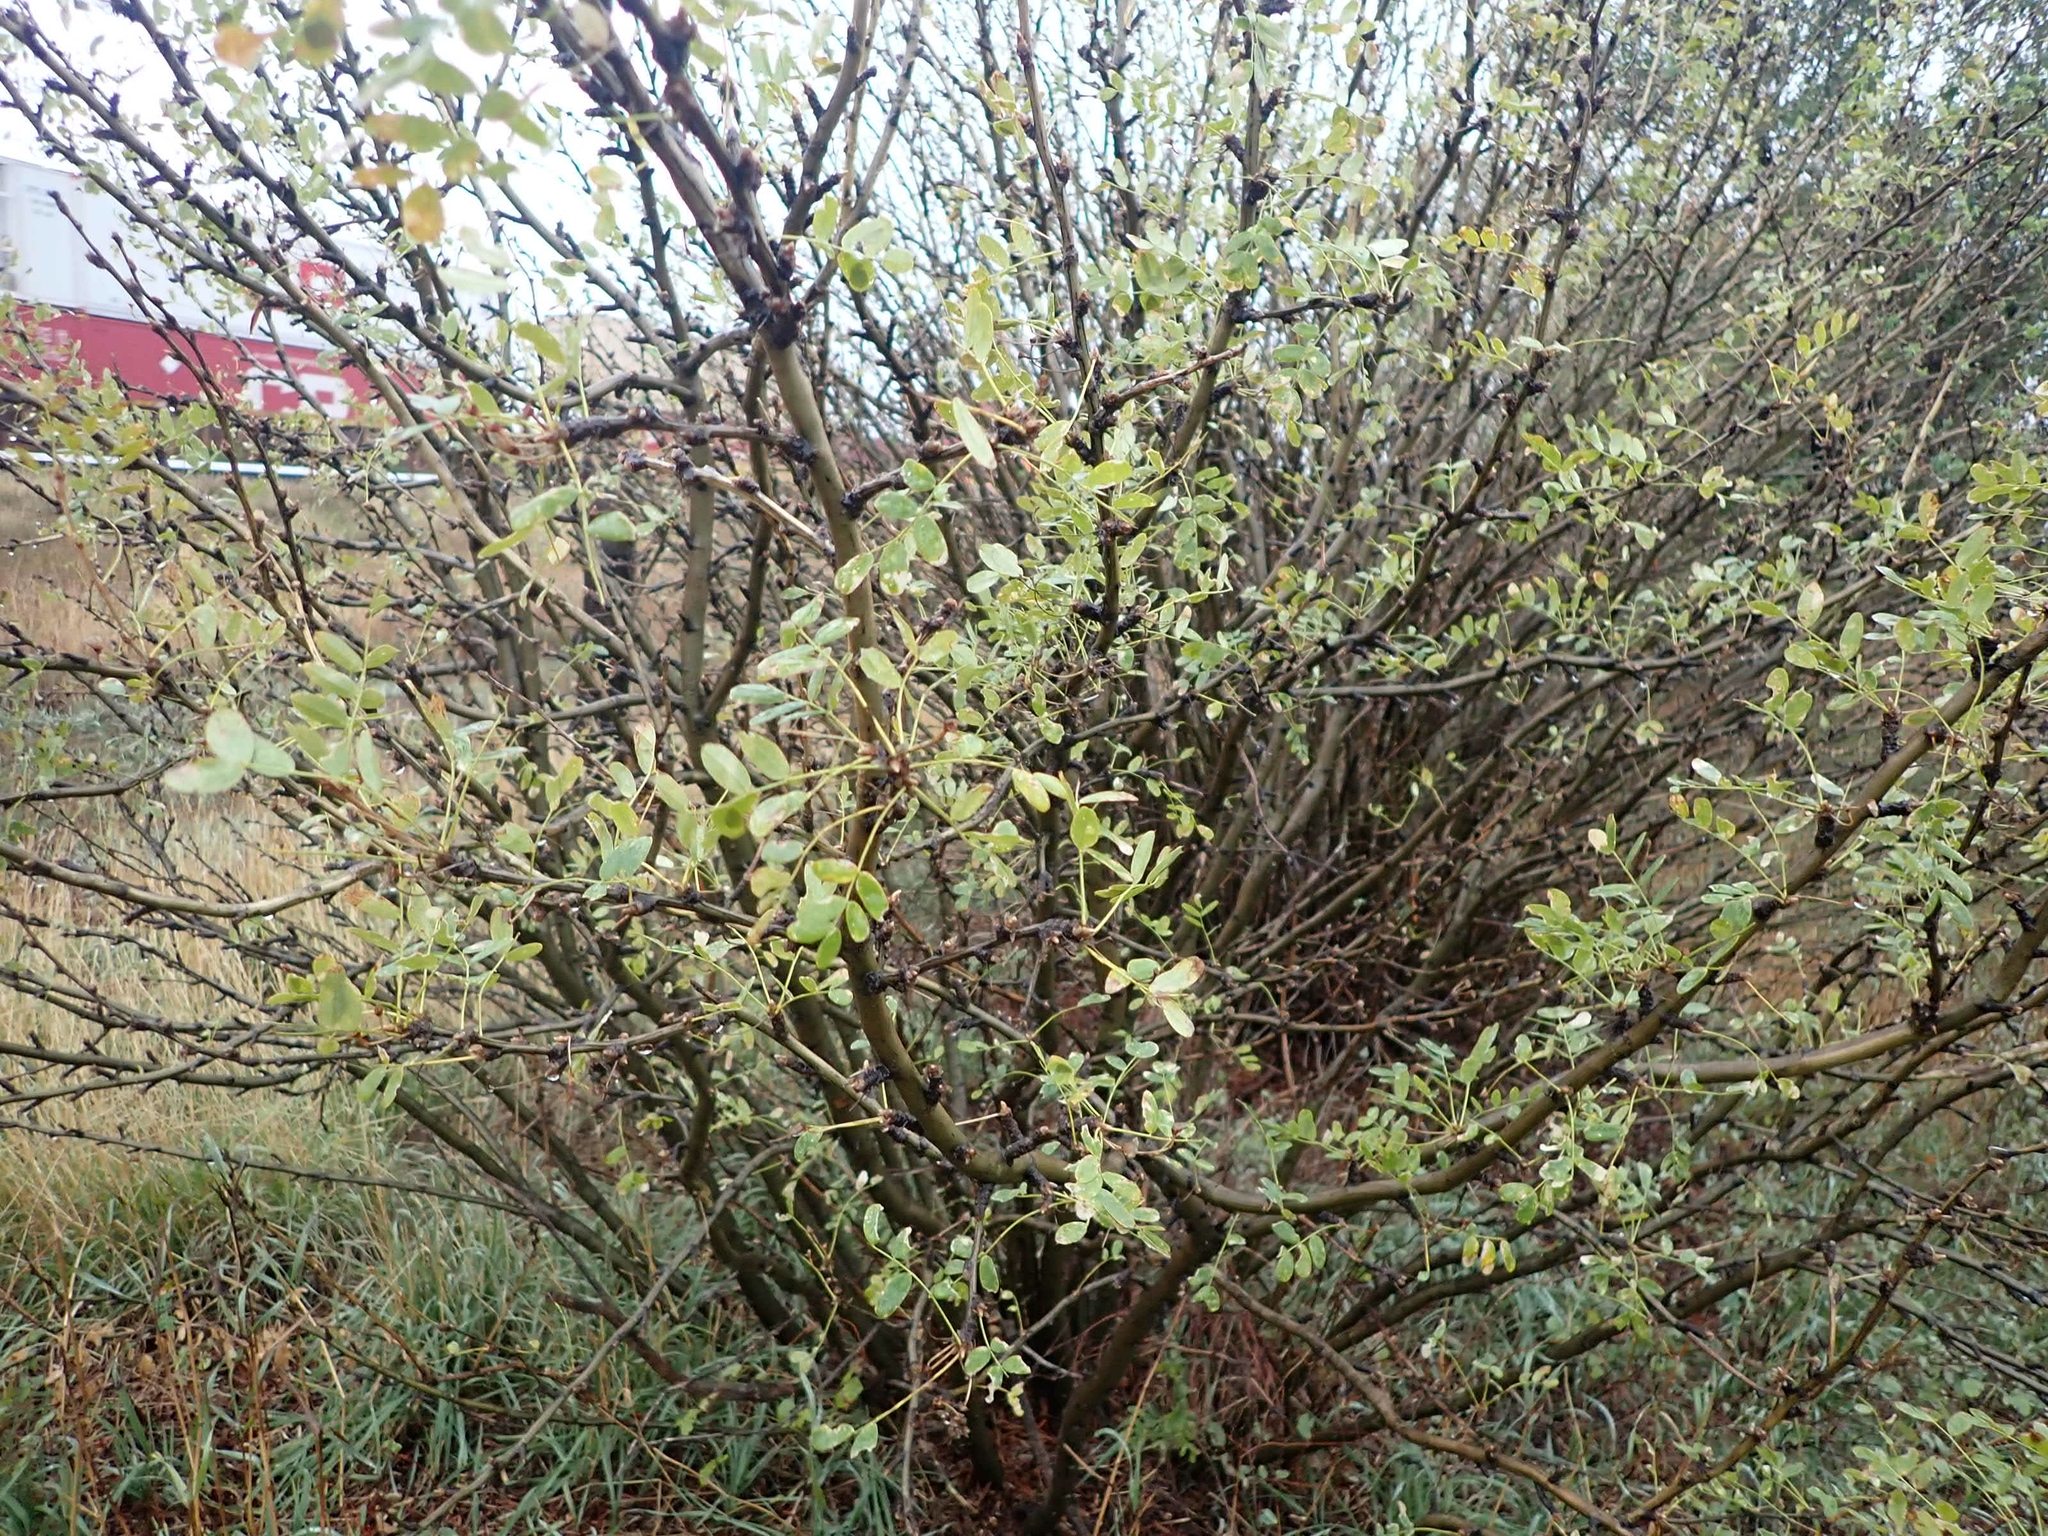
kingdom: Plantae
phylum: Tracheophyta
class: Magnoliopsida
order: Fabales
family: Fabaceae
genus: Caragana
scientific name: Caragana arborescens
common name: Siberian peashrub
